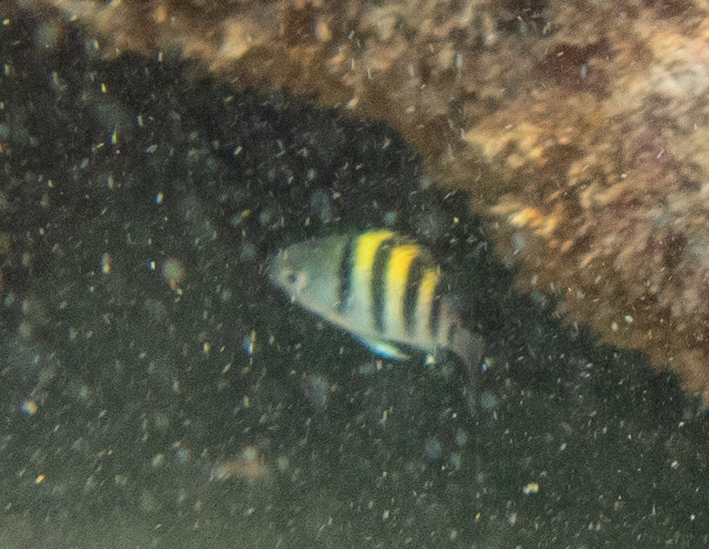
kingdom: Animalia
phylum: Chordata
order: Perciformes
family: Pomacentridae
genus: Abudefduf
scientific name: Abudefduf vaigiensis
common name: Indo-pacific sergeant
